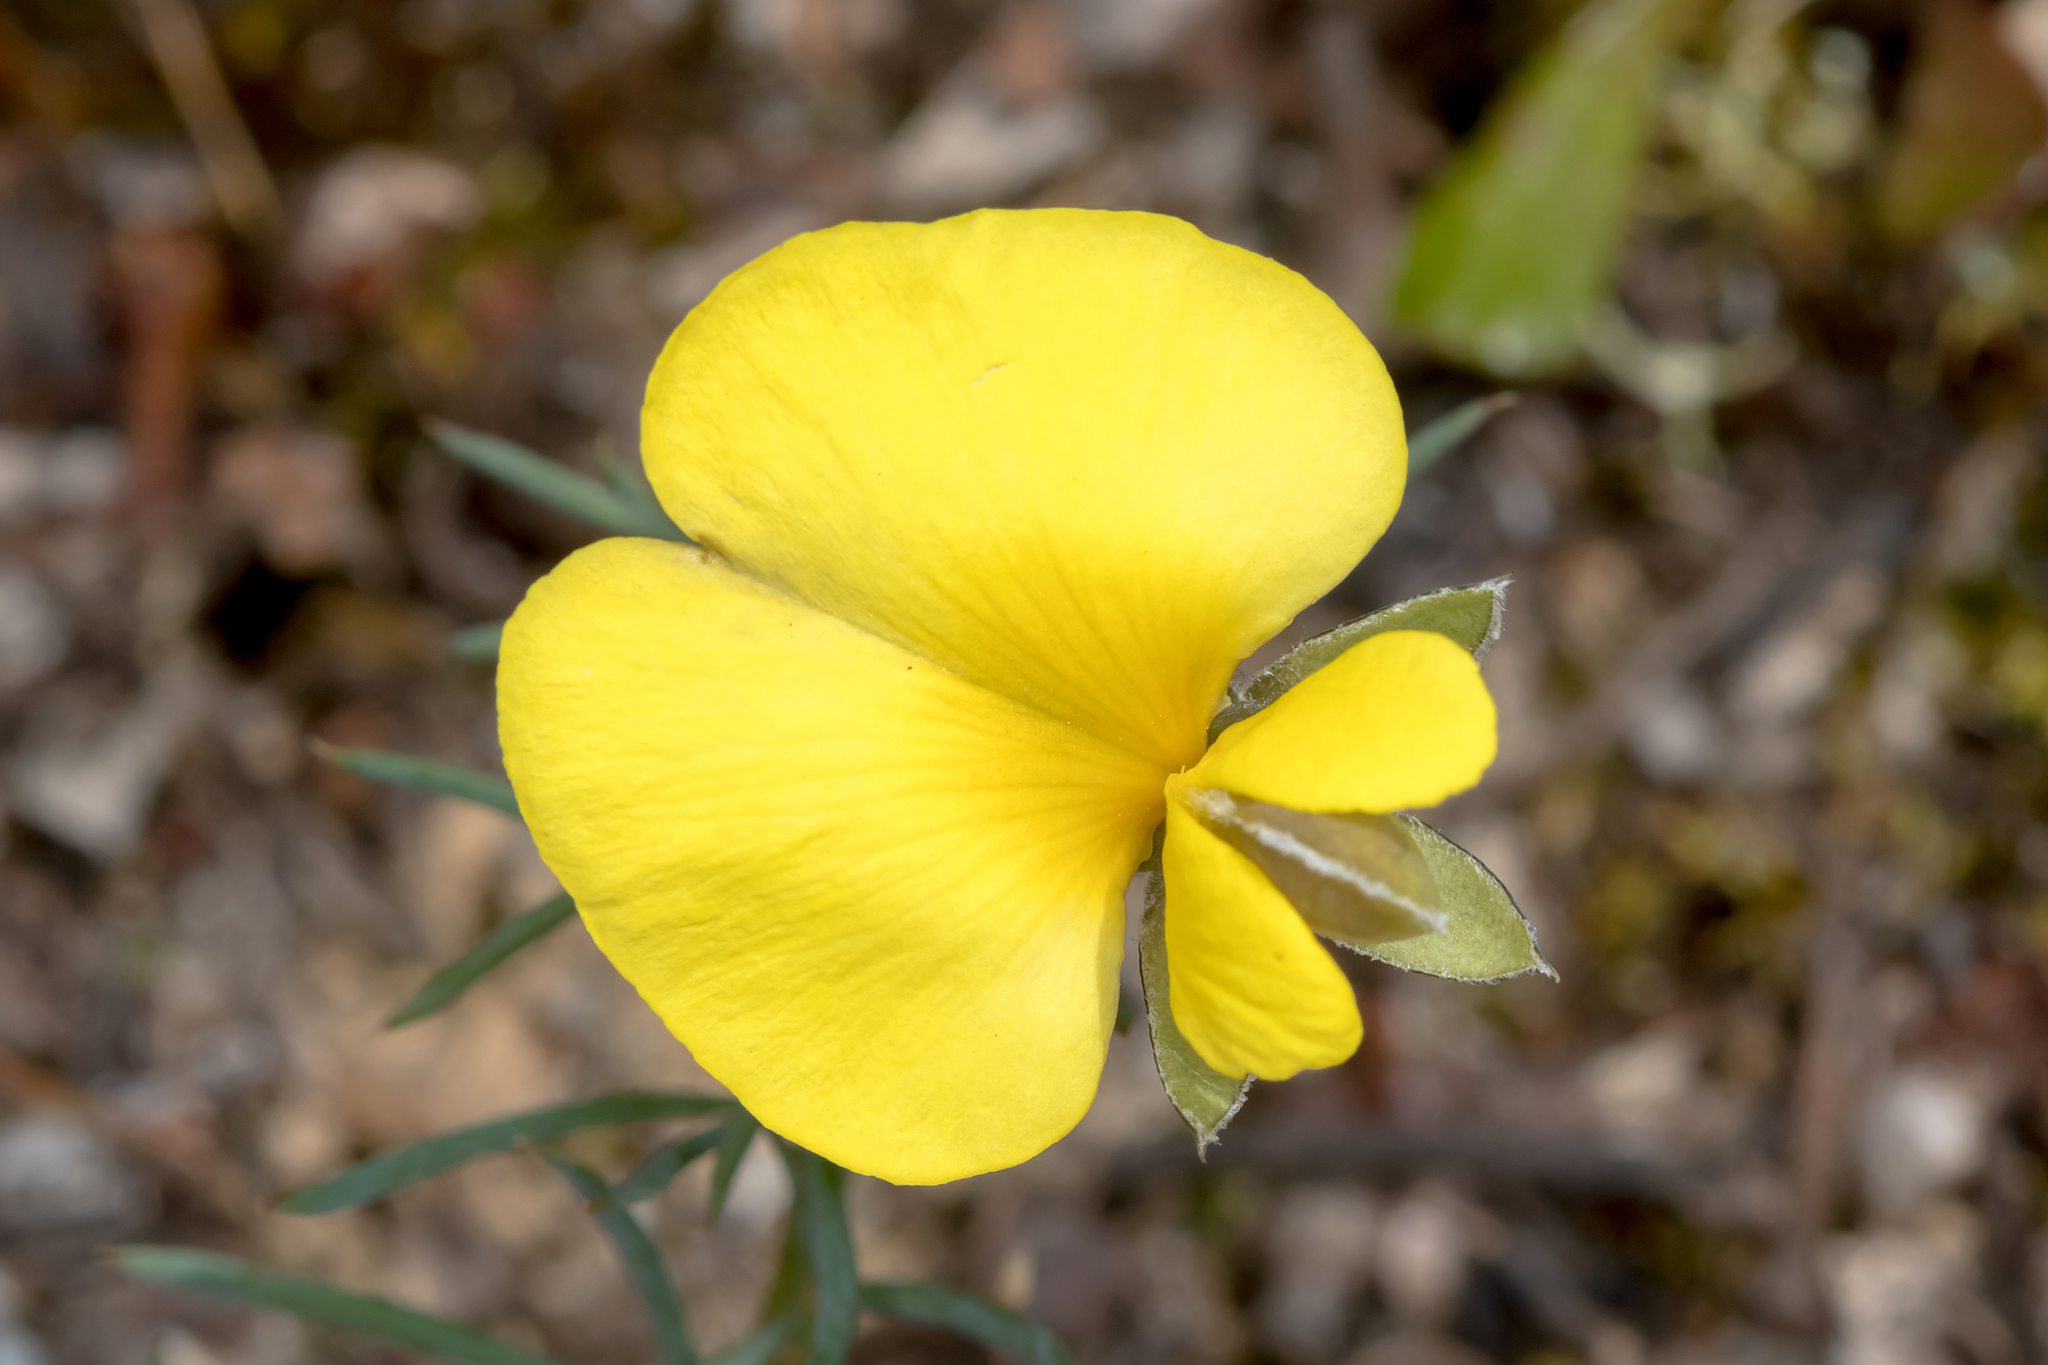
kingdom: Plantae
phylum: Tracheophyta
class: Magnoliopsida
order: Fabales
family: Fabaceae
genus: Gompholobium
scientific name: Gompholobium huegelii
